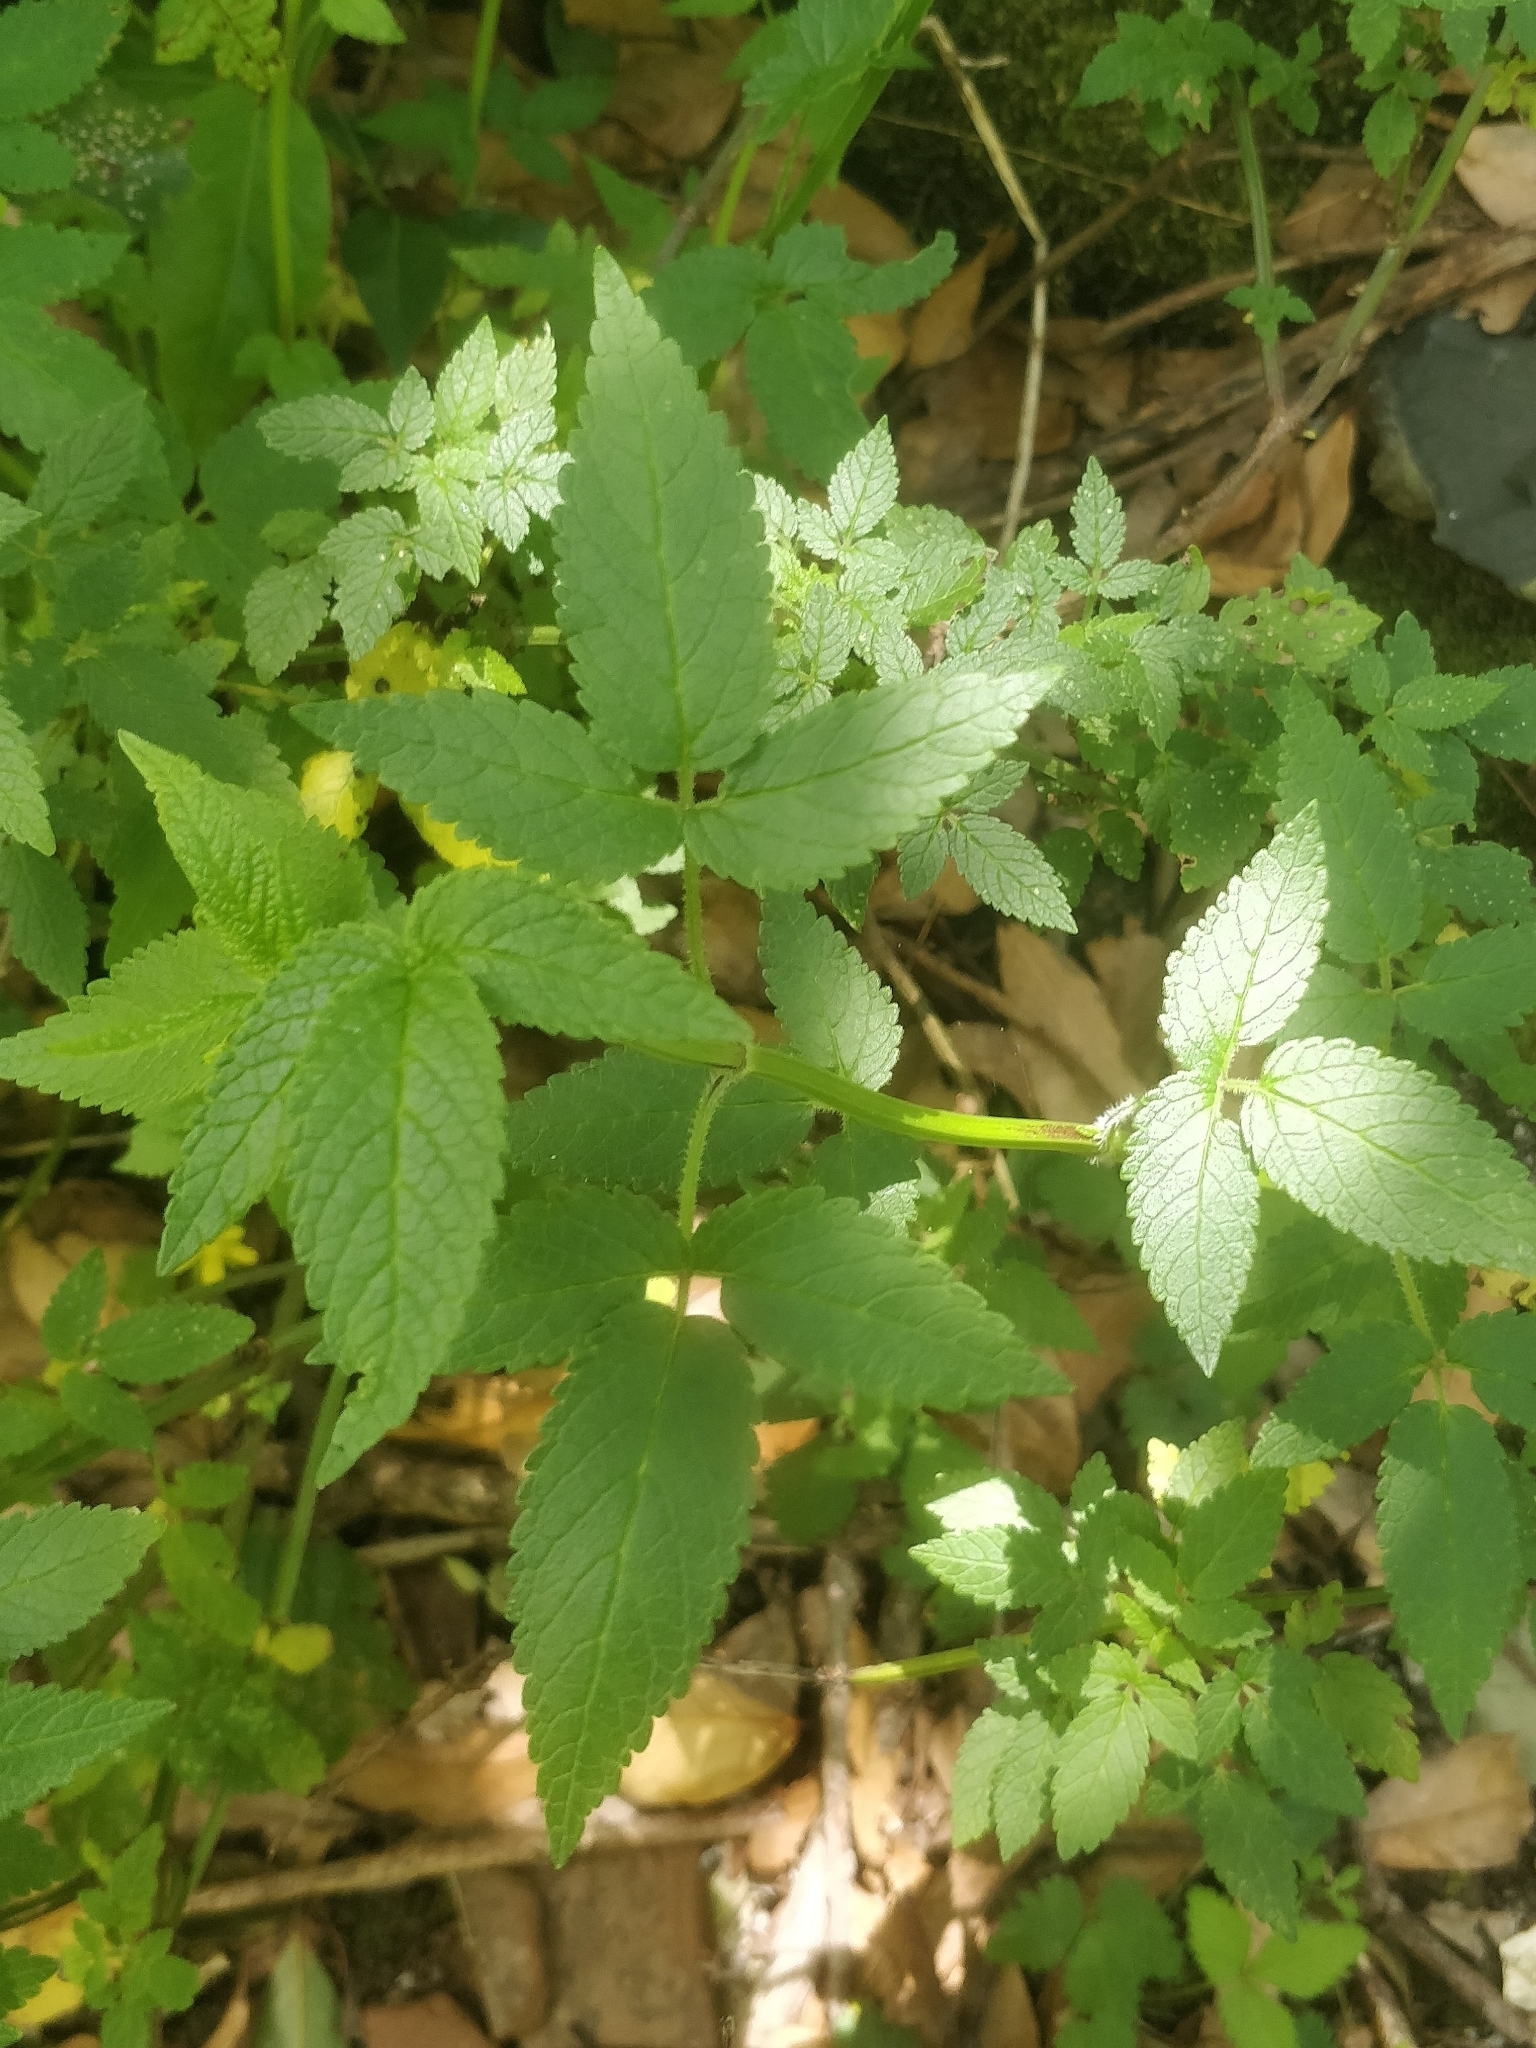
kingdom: Plantae
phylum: Tracheophyta
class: Magnoliopsida
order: Lamiales
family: Lamiaceae
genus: Cedronella
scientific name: Cedronella canariensis
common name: Canary islands balm
